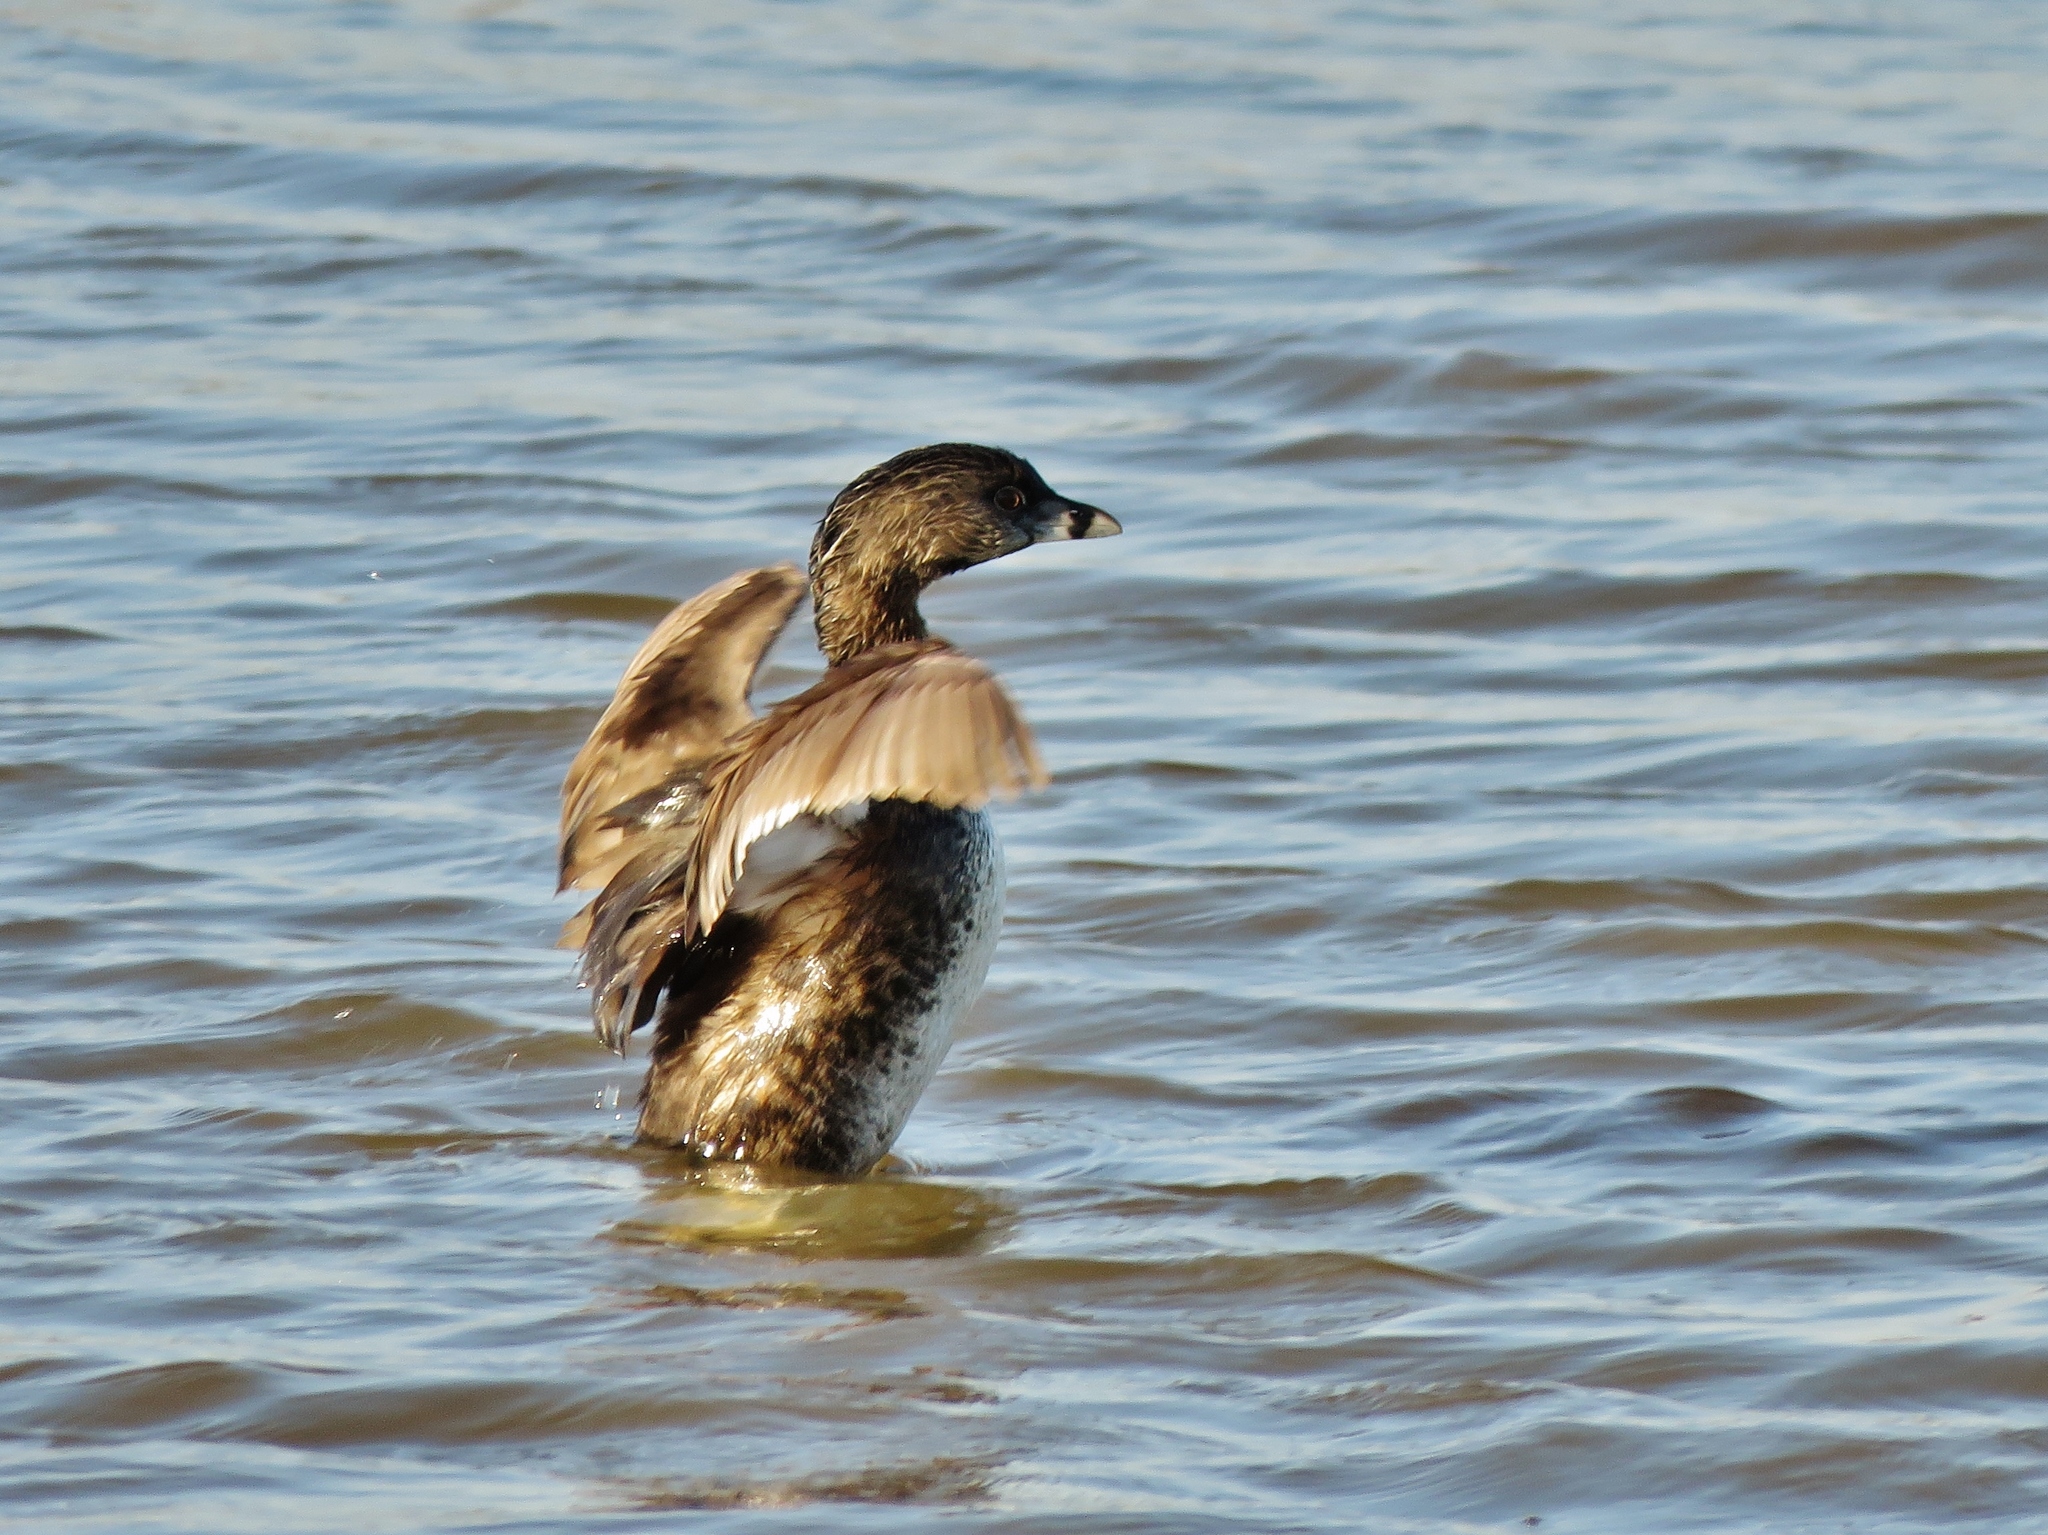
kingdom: Animalia
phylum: Chordata
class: Aves
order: Podicipediformes
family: Podicipedidae
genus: Podilymbus
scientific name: Podilymbus podiceps
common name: Pied-billed grebe
